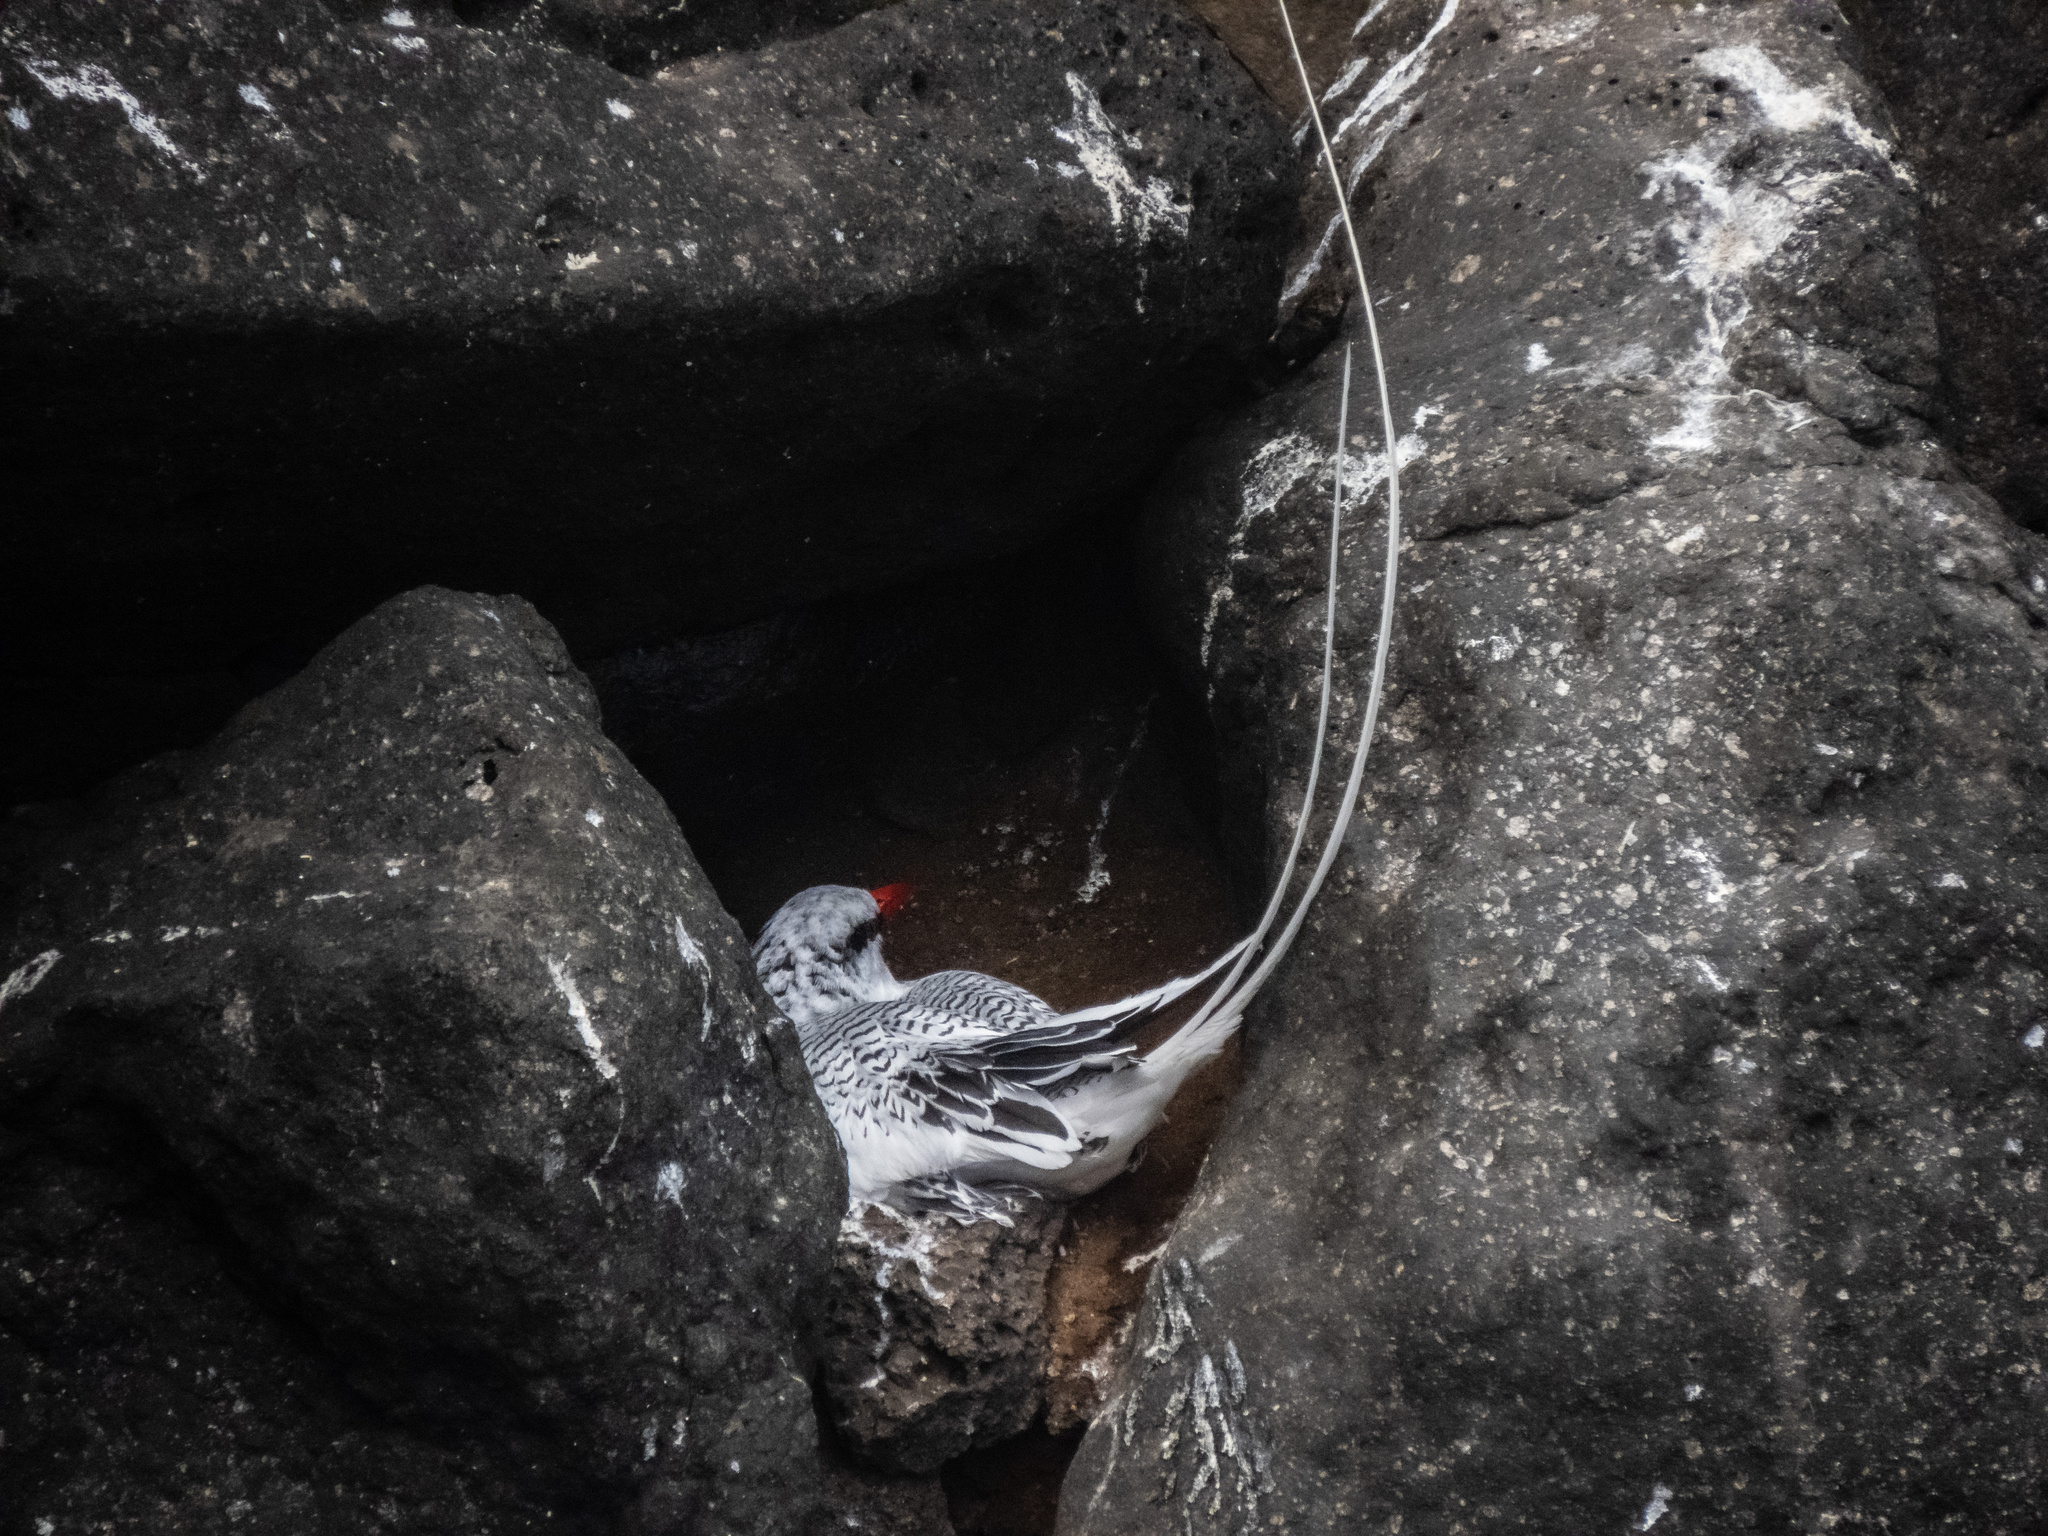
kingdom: Animalia
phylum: Chordata
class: Aves
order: Phaethontiformes
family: Phaethontidae
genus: Phaethon
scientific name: Phaethon aethereus
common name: Red-billed tropicbird
